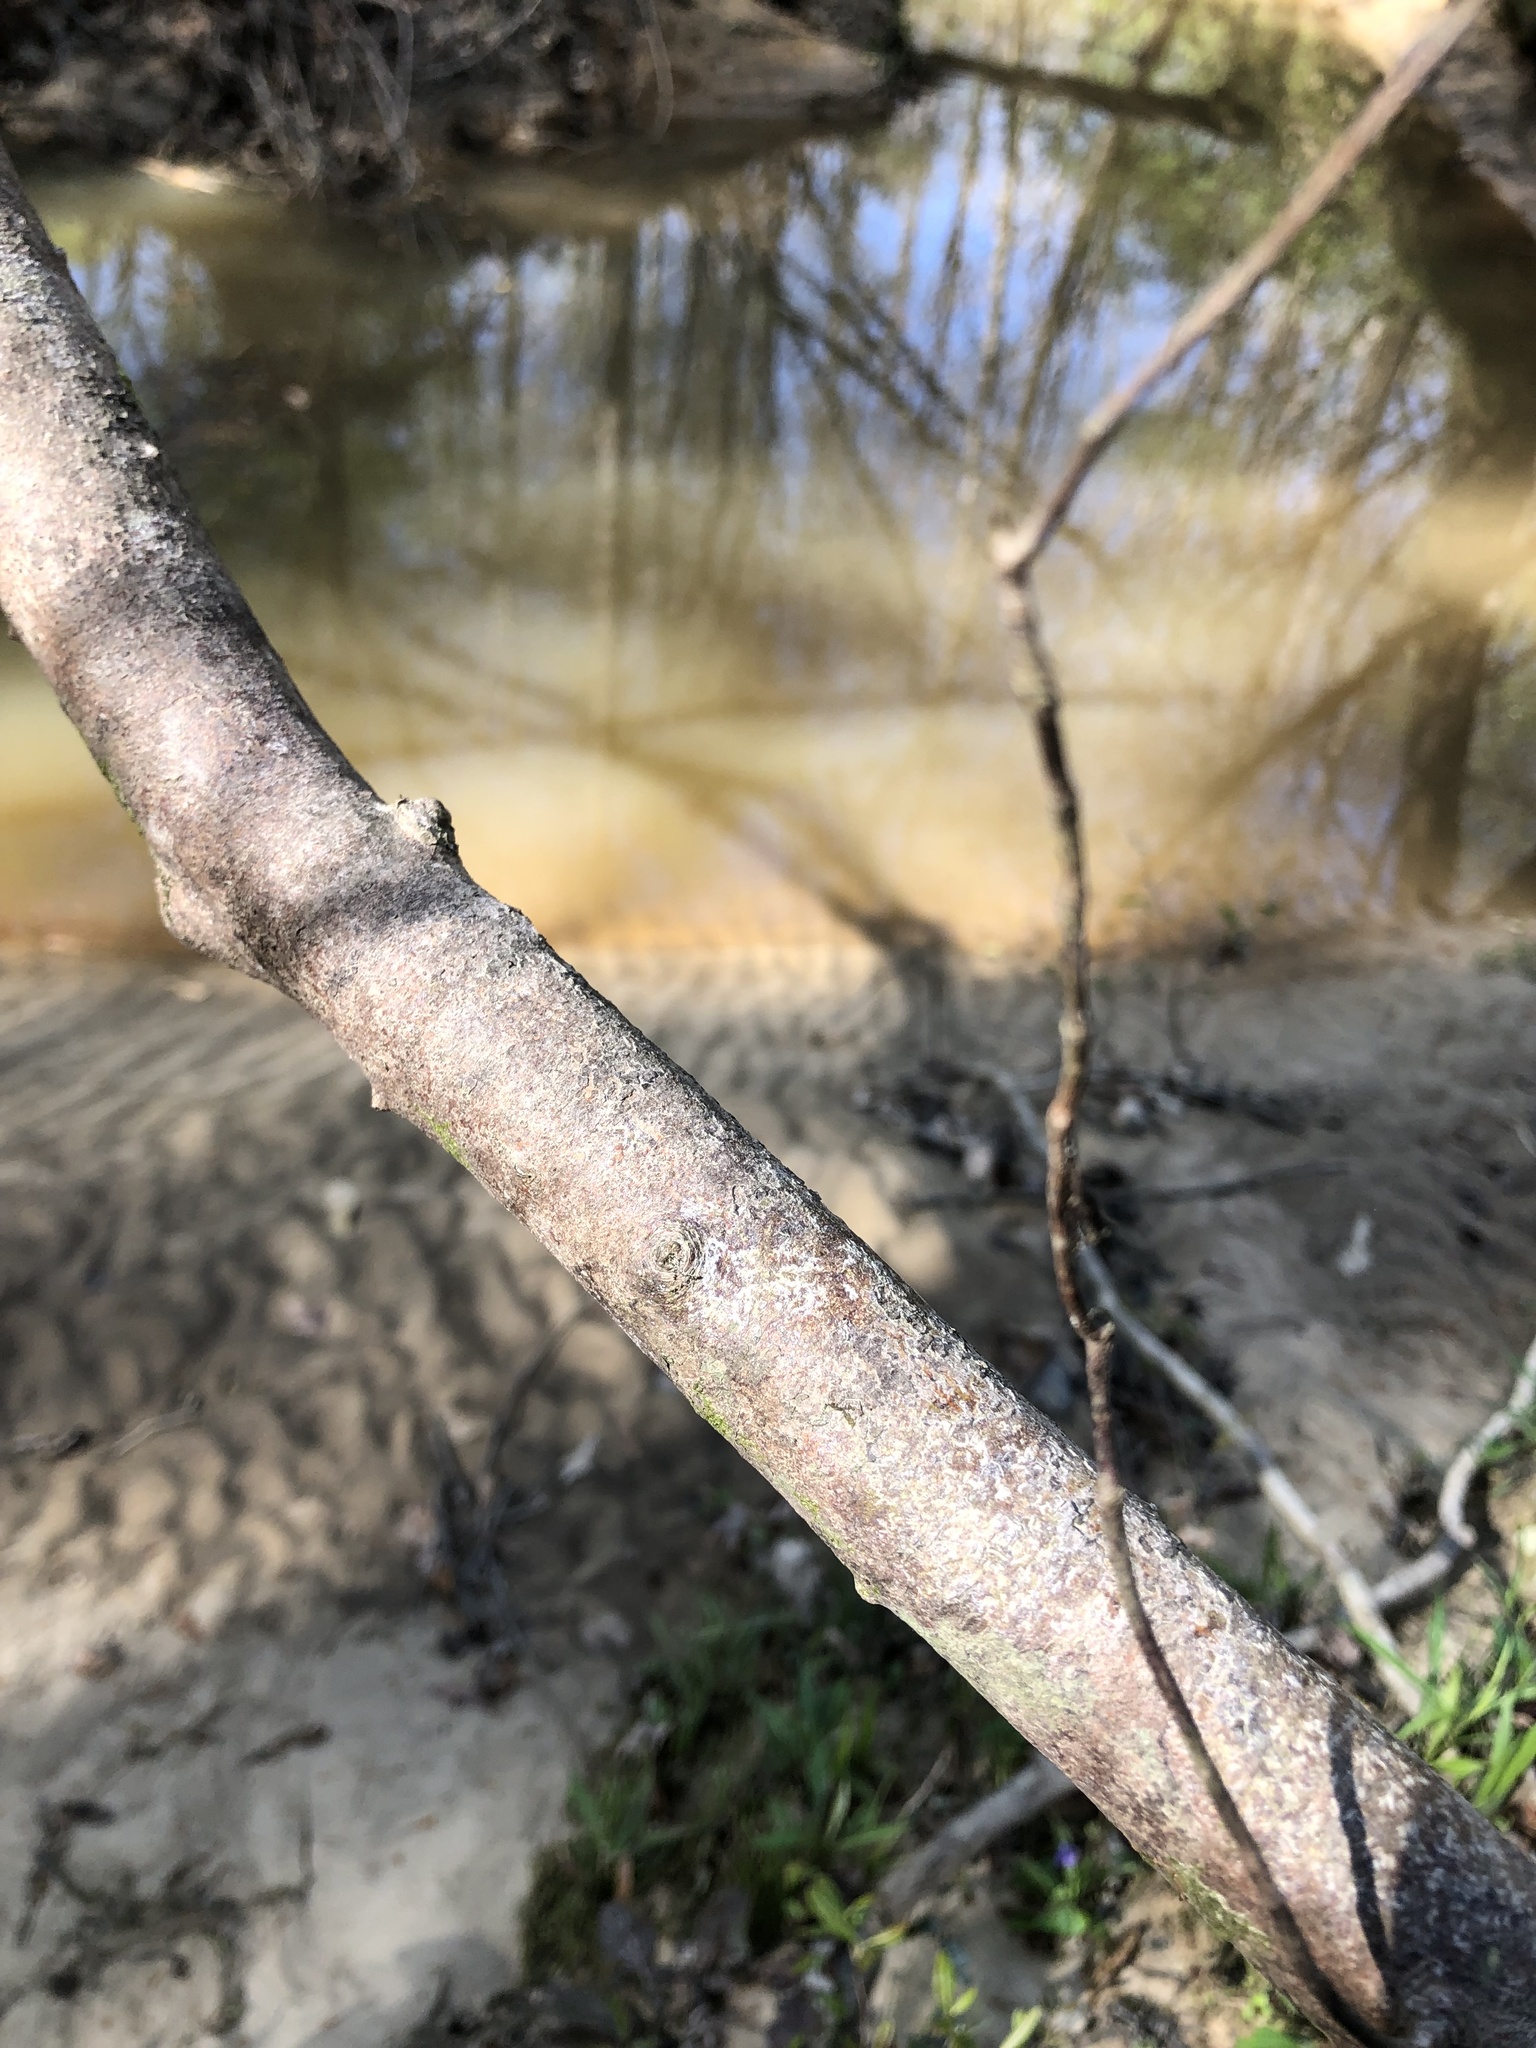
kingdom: Plantae
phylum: Tracheophyta
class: Magnoliopsida
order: Ericales
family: Ericaceae
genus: Rhododendron
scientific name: Rhododendron canescens
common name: Mountain azalea
